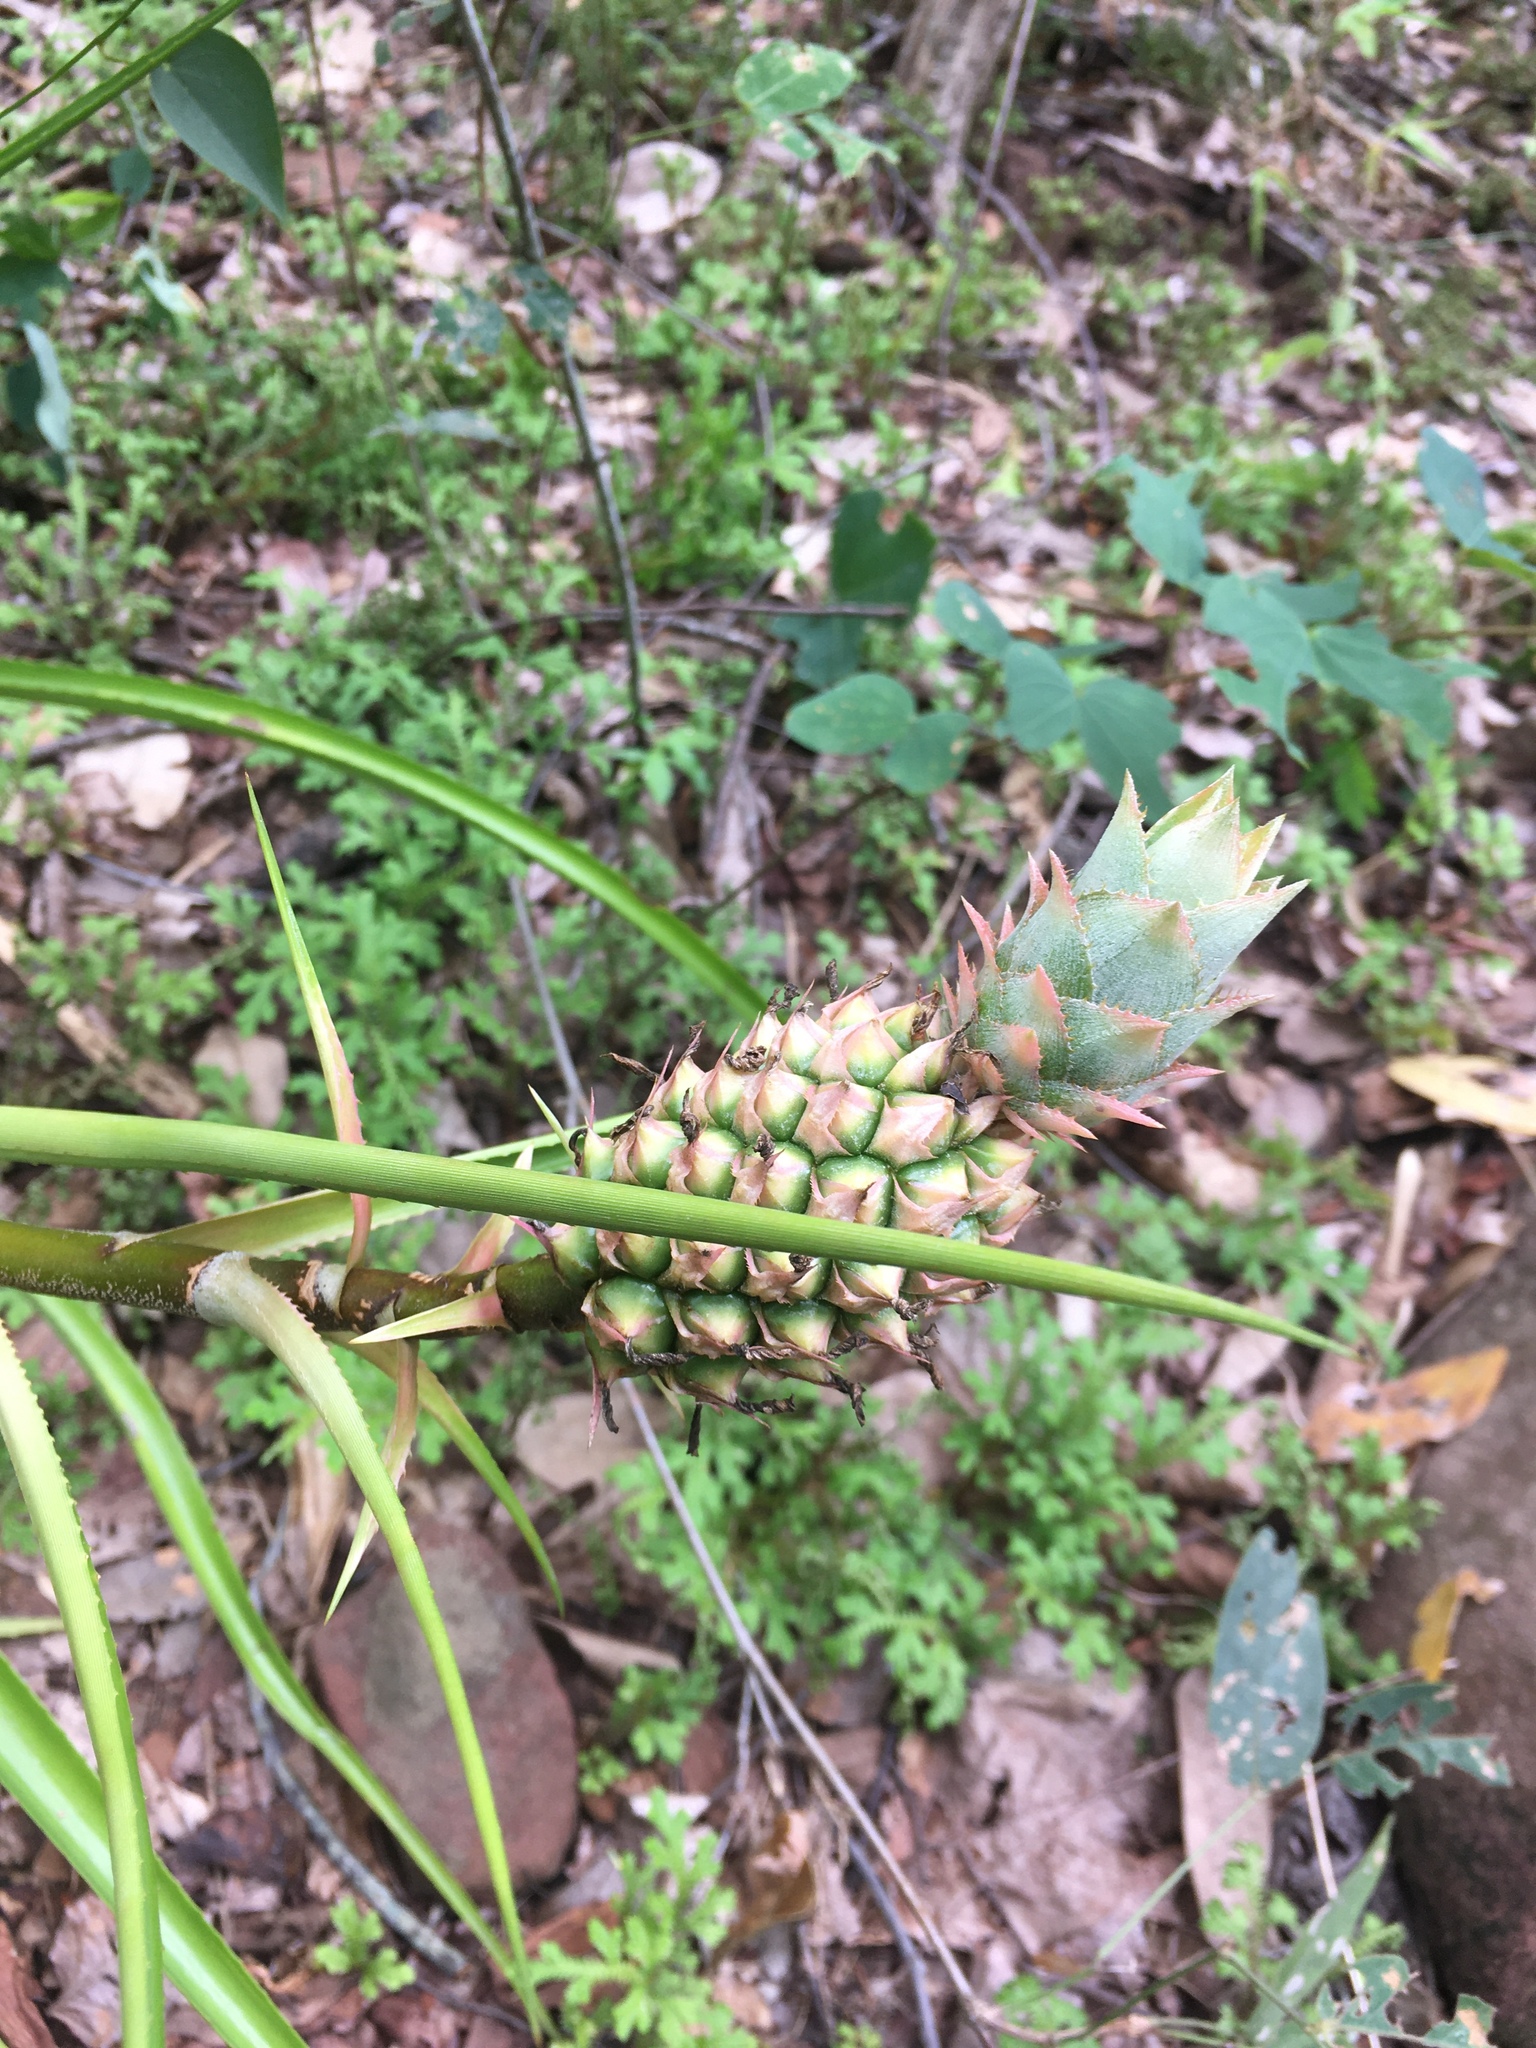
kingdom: Plantae
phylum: Tracheophyta
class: Liliopsida
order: Poales
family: Bromeliaceae
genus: Ananas
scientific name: Ananas comosus
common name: Pineapple
